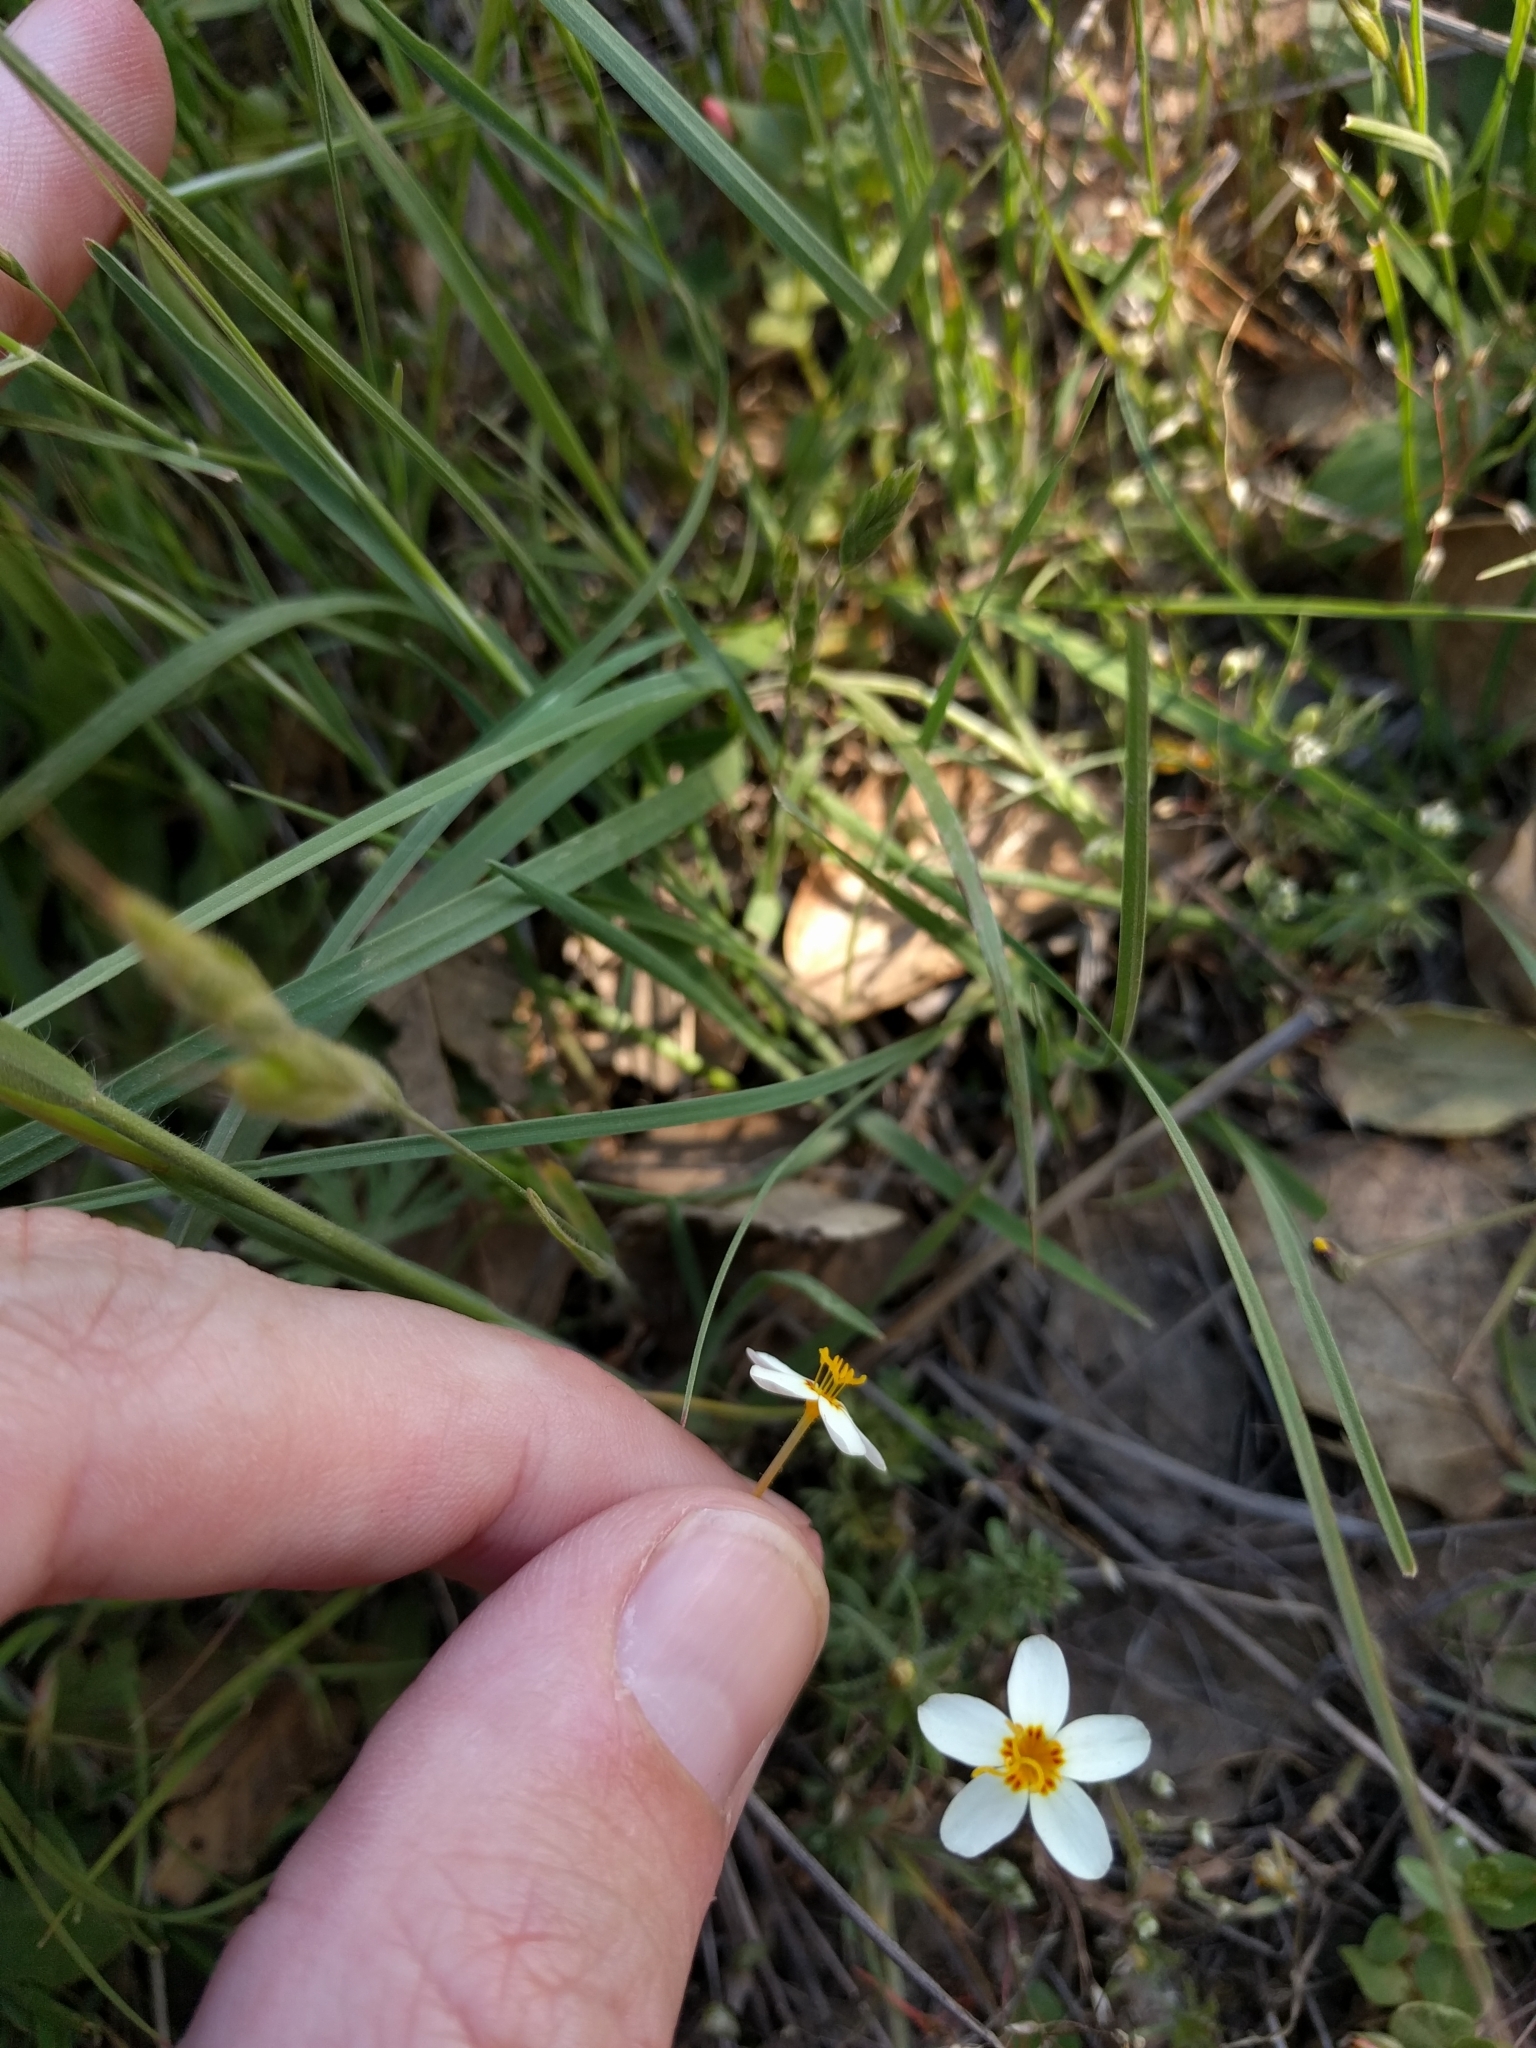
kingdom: Plantae
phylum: Tracheophyta
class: Magnoliopsida
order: Ericales
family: Polemoniaceae
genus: Leptosiphon
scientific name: Leptosiphon parviflorus
